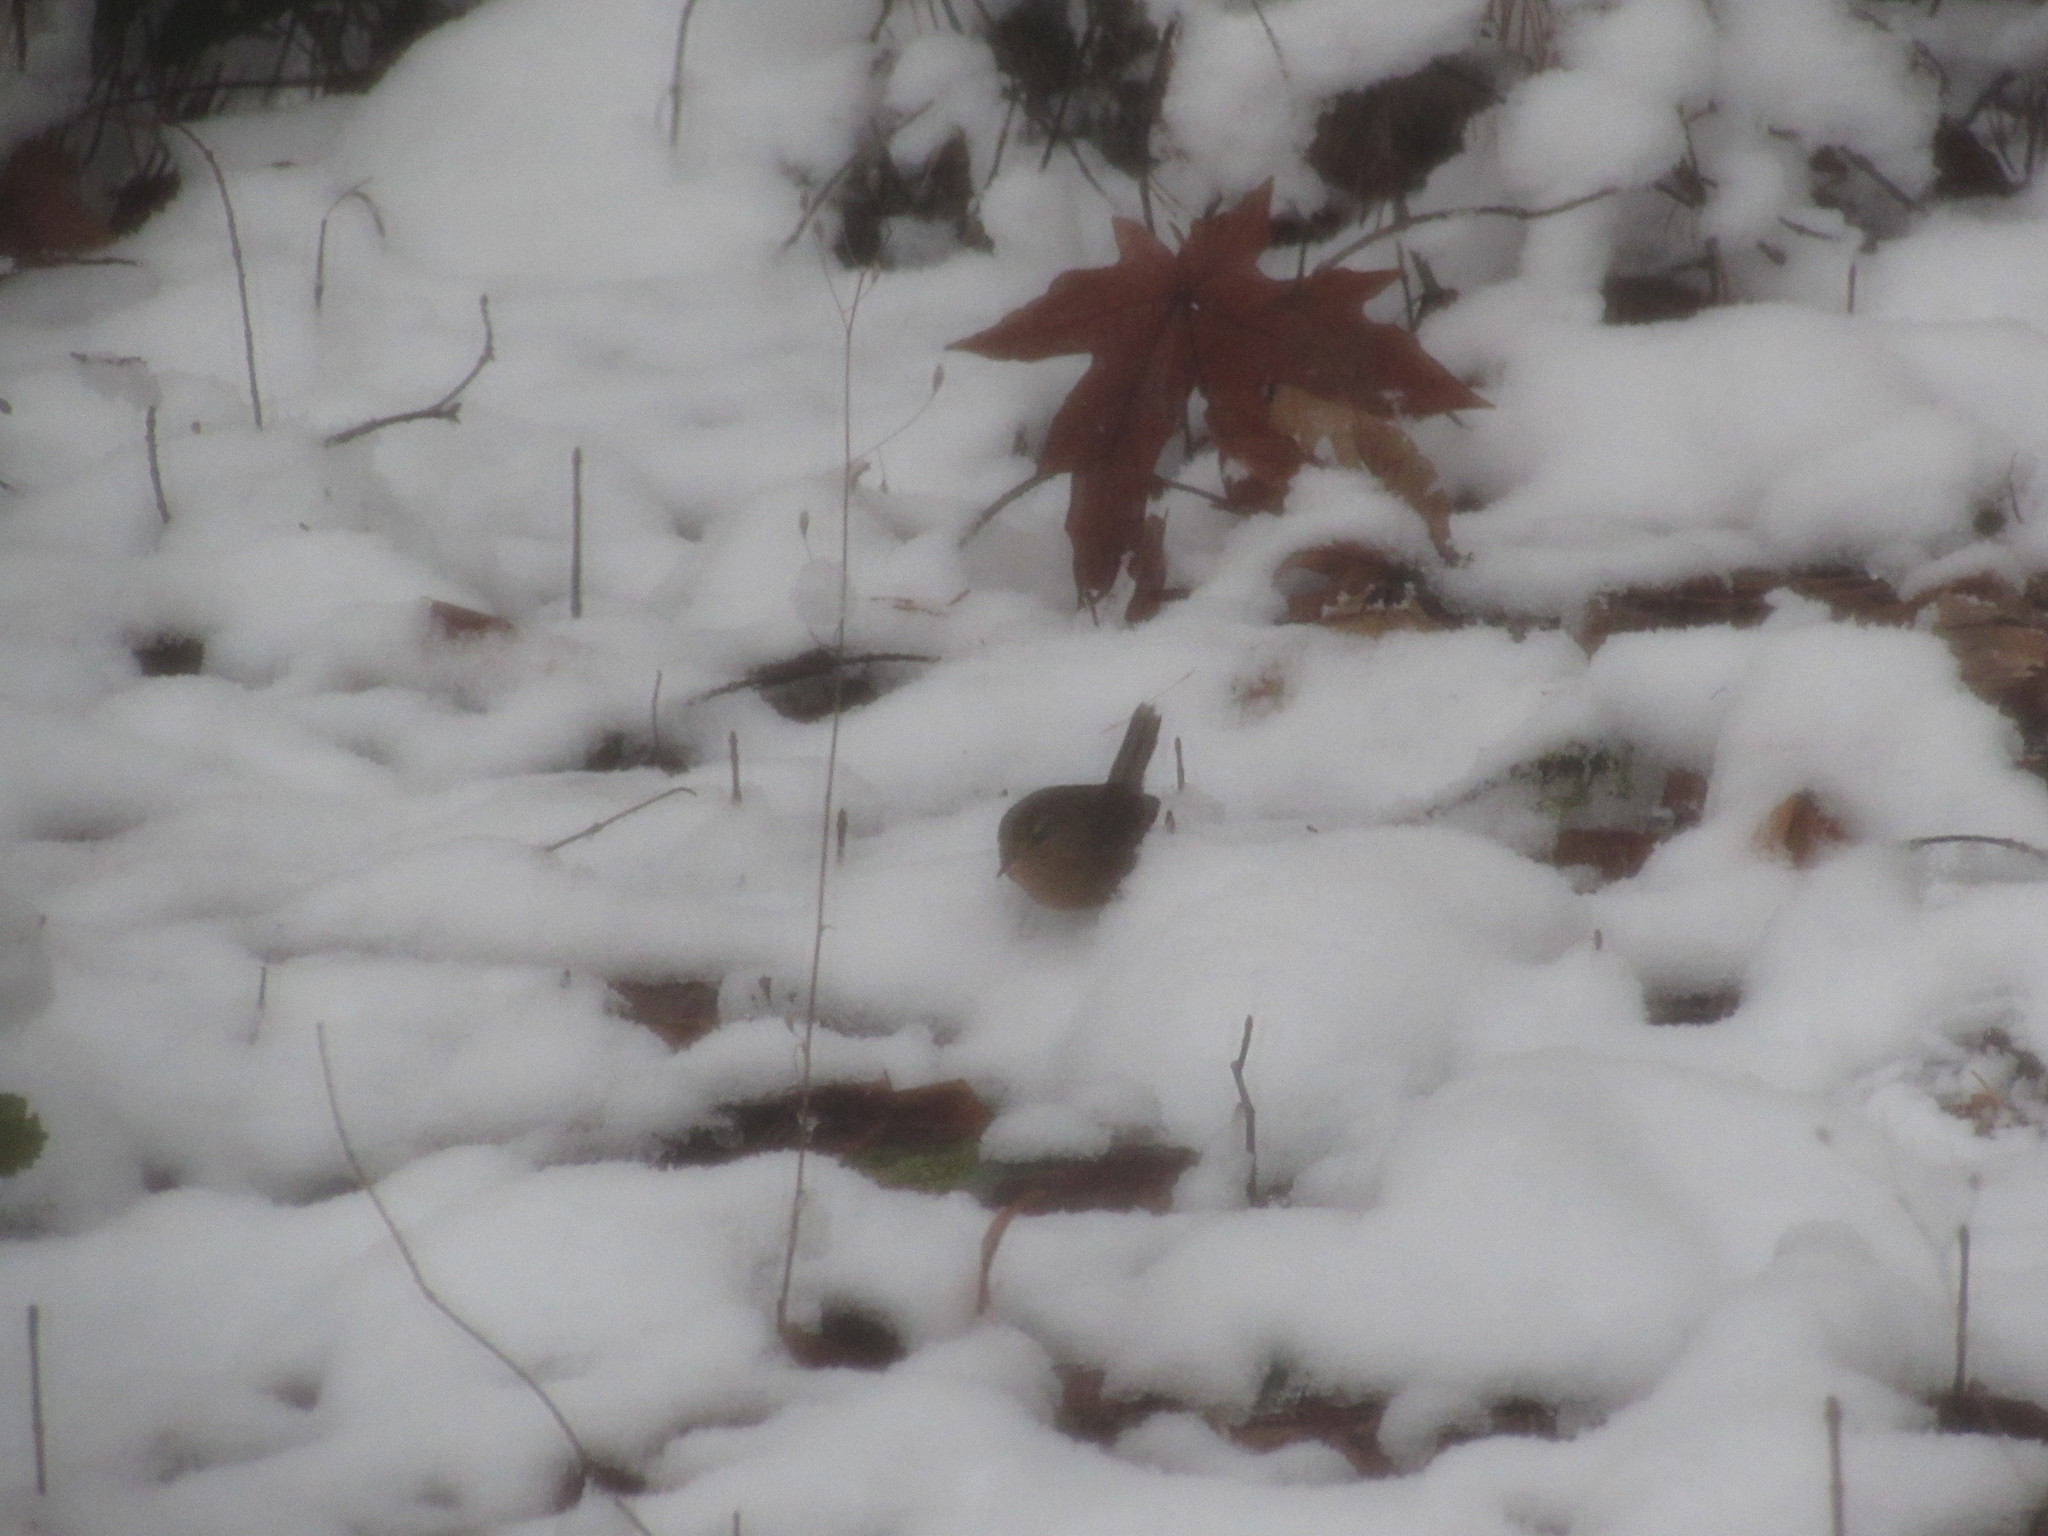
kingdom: Animalia
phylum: Chordata
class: Aves
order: Passeriformes
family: Troglodytidae
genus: Troglodytes
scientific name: Troglodytes pacificus
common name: Pacific wren
